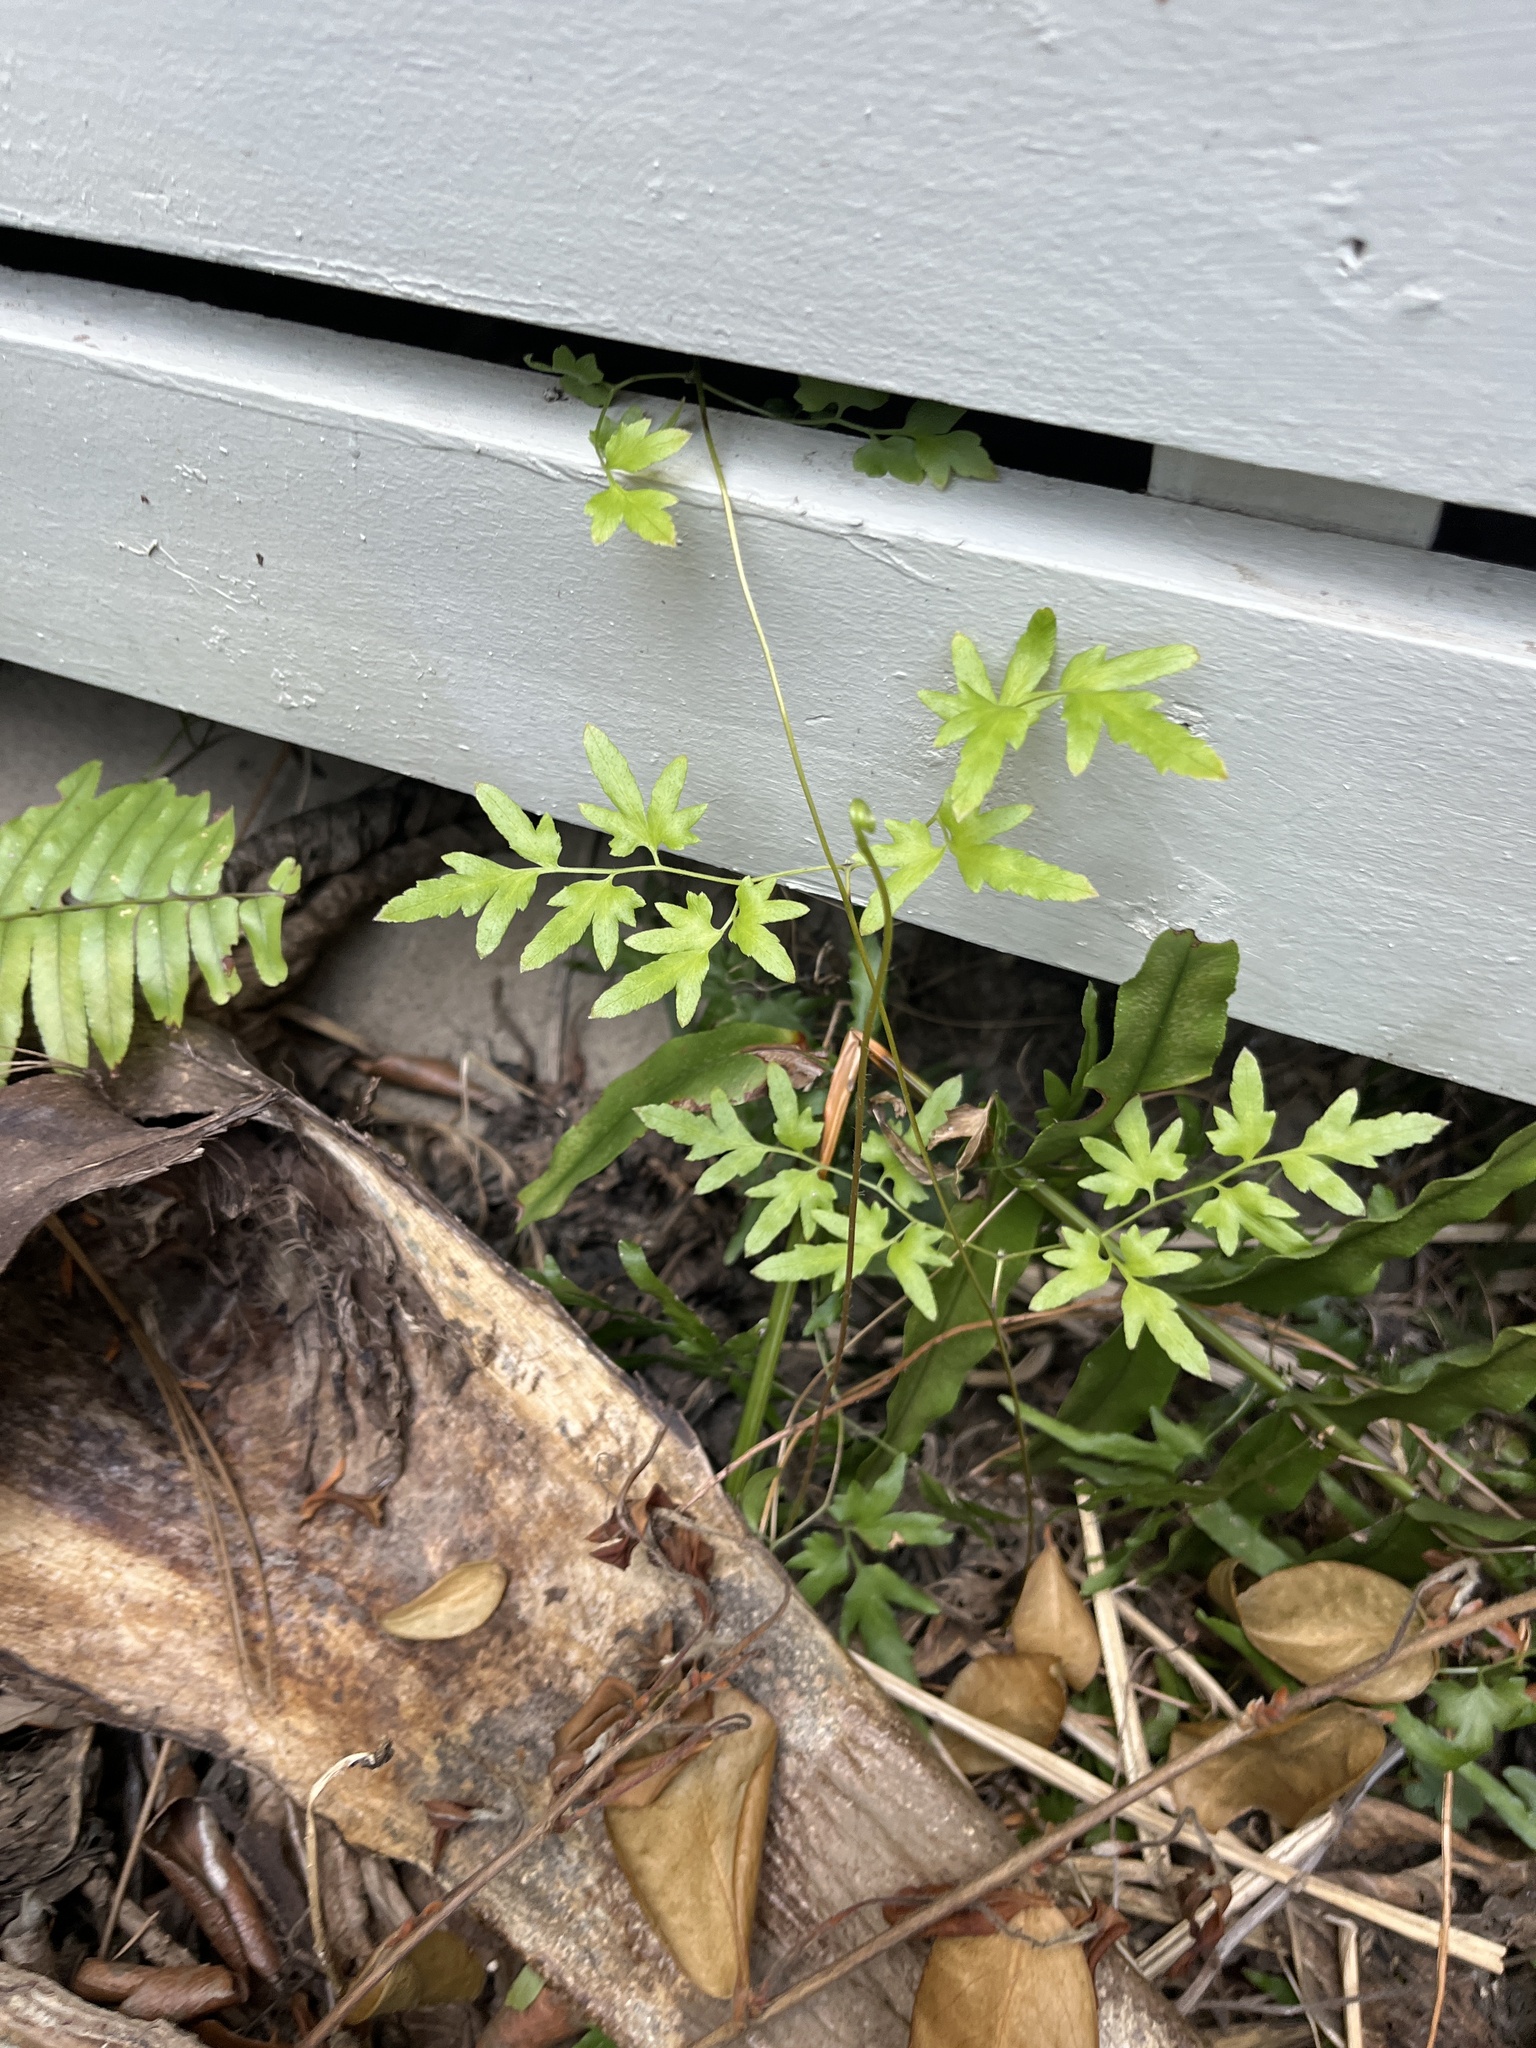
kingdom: Plantae
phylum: Tracheophyta
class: Polypodiopsida
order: Schizaeales
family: Lygodiaceae
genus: Lygodium
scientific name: Lygodium japonicum
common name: Japanese climbing fern
